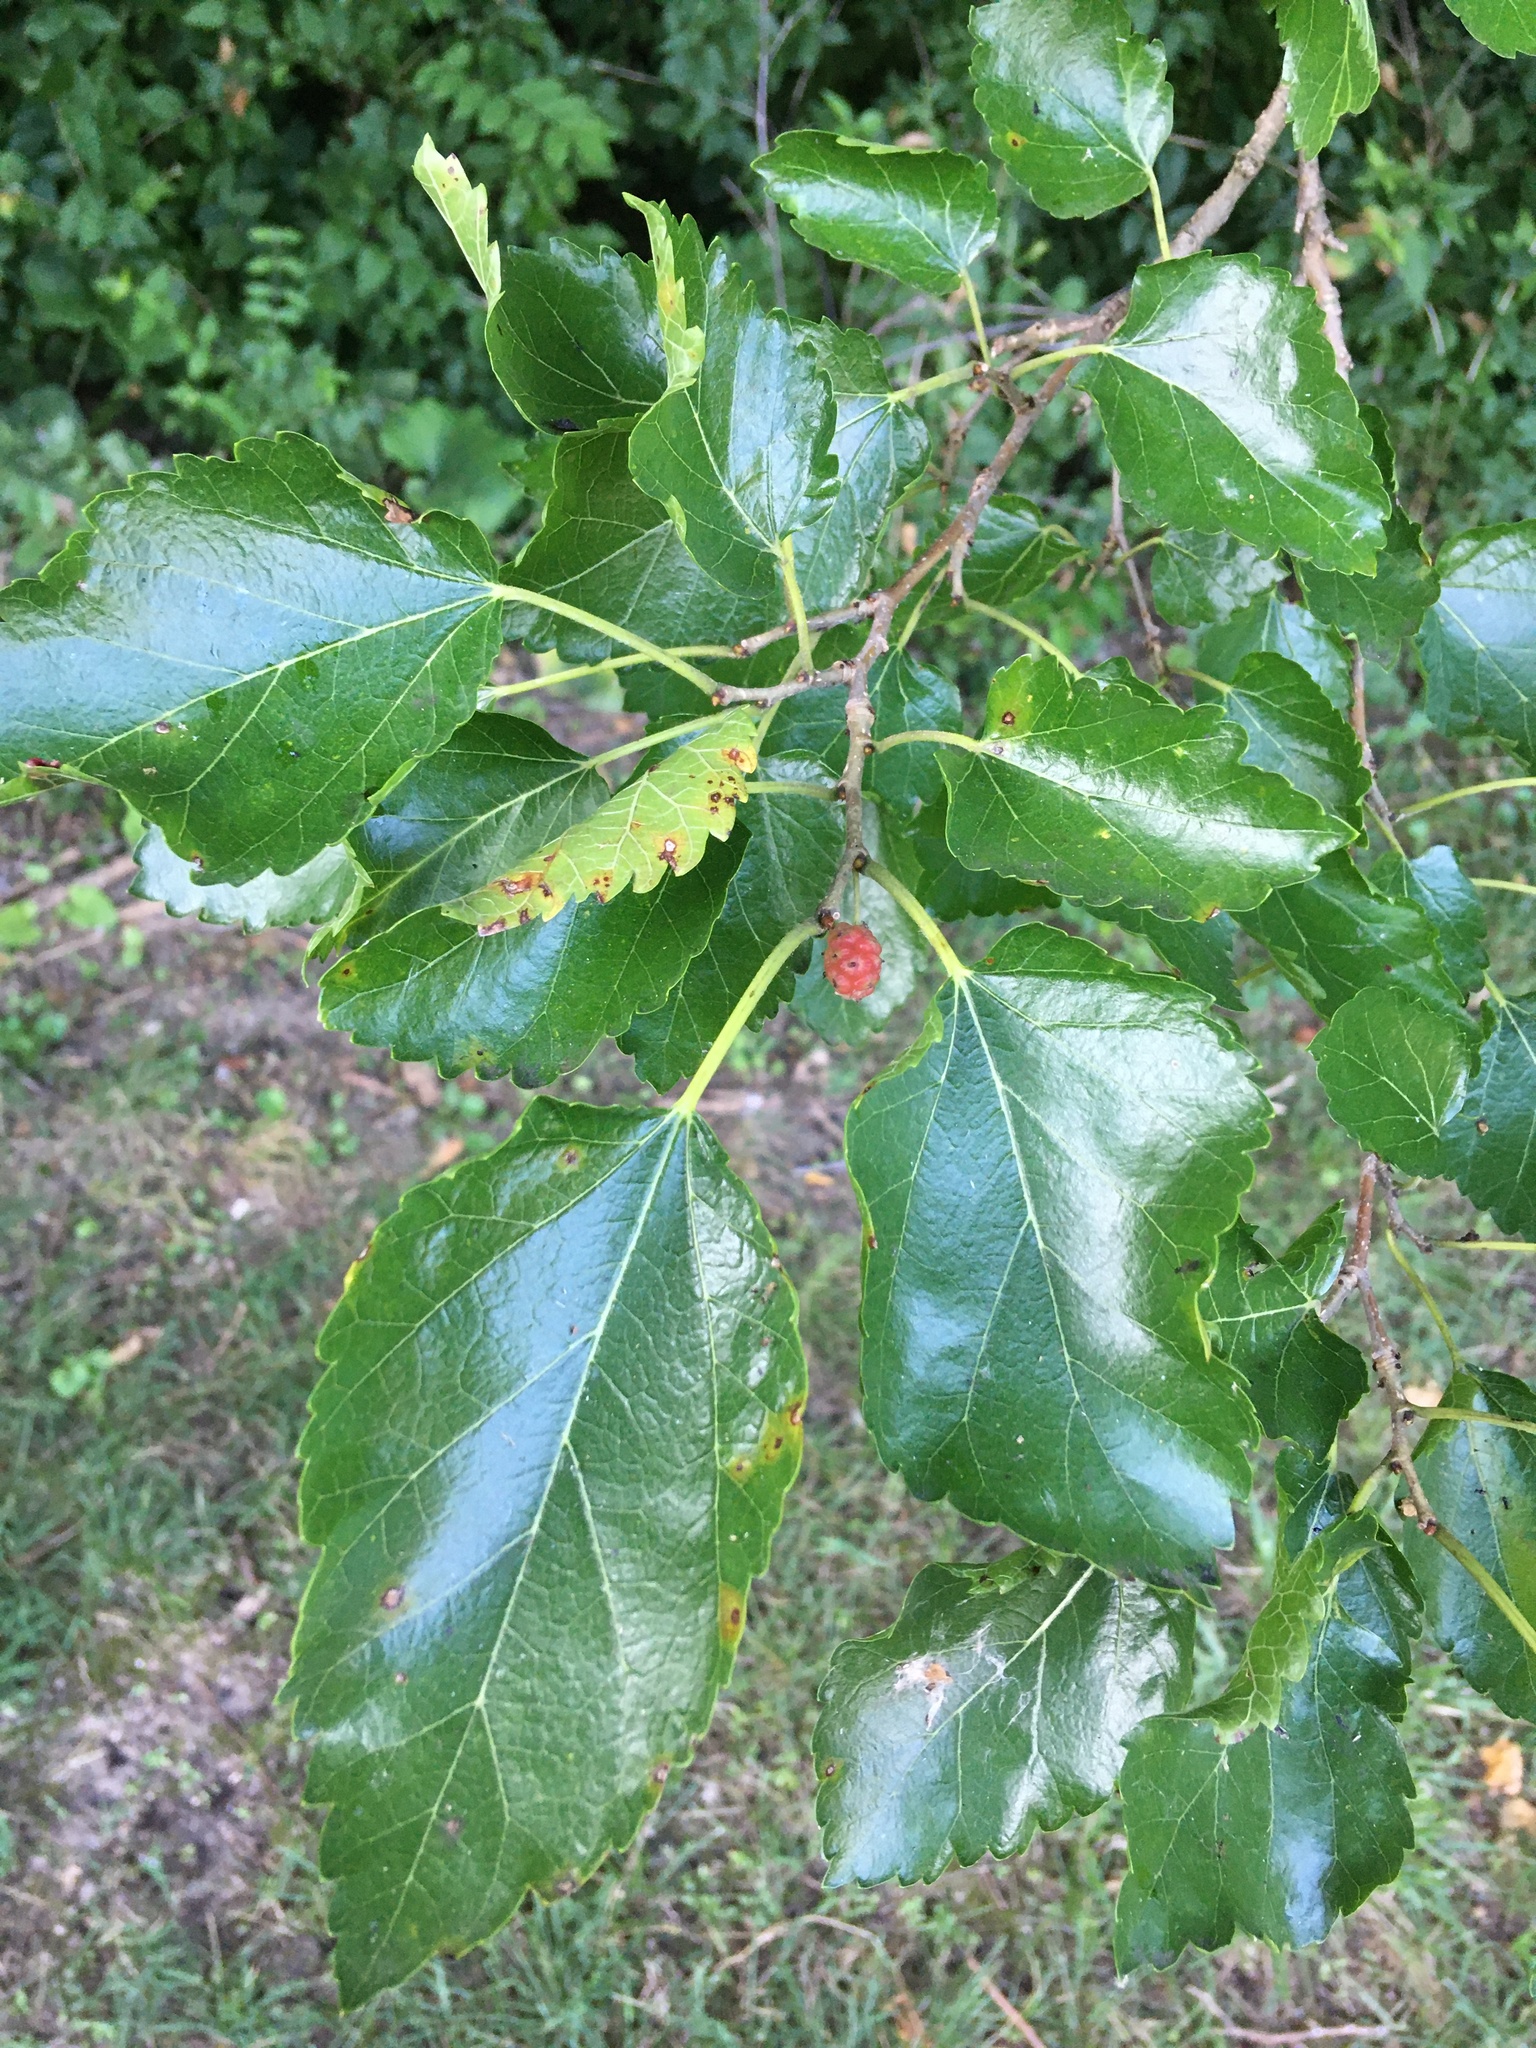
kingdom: Plantae
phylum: Tracheophyta
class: Magnoliopsida
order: Rosales
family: Moraceae
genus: Morus
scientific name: Morus alba
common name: White mulberry
